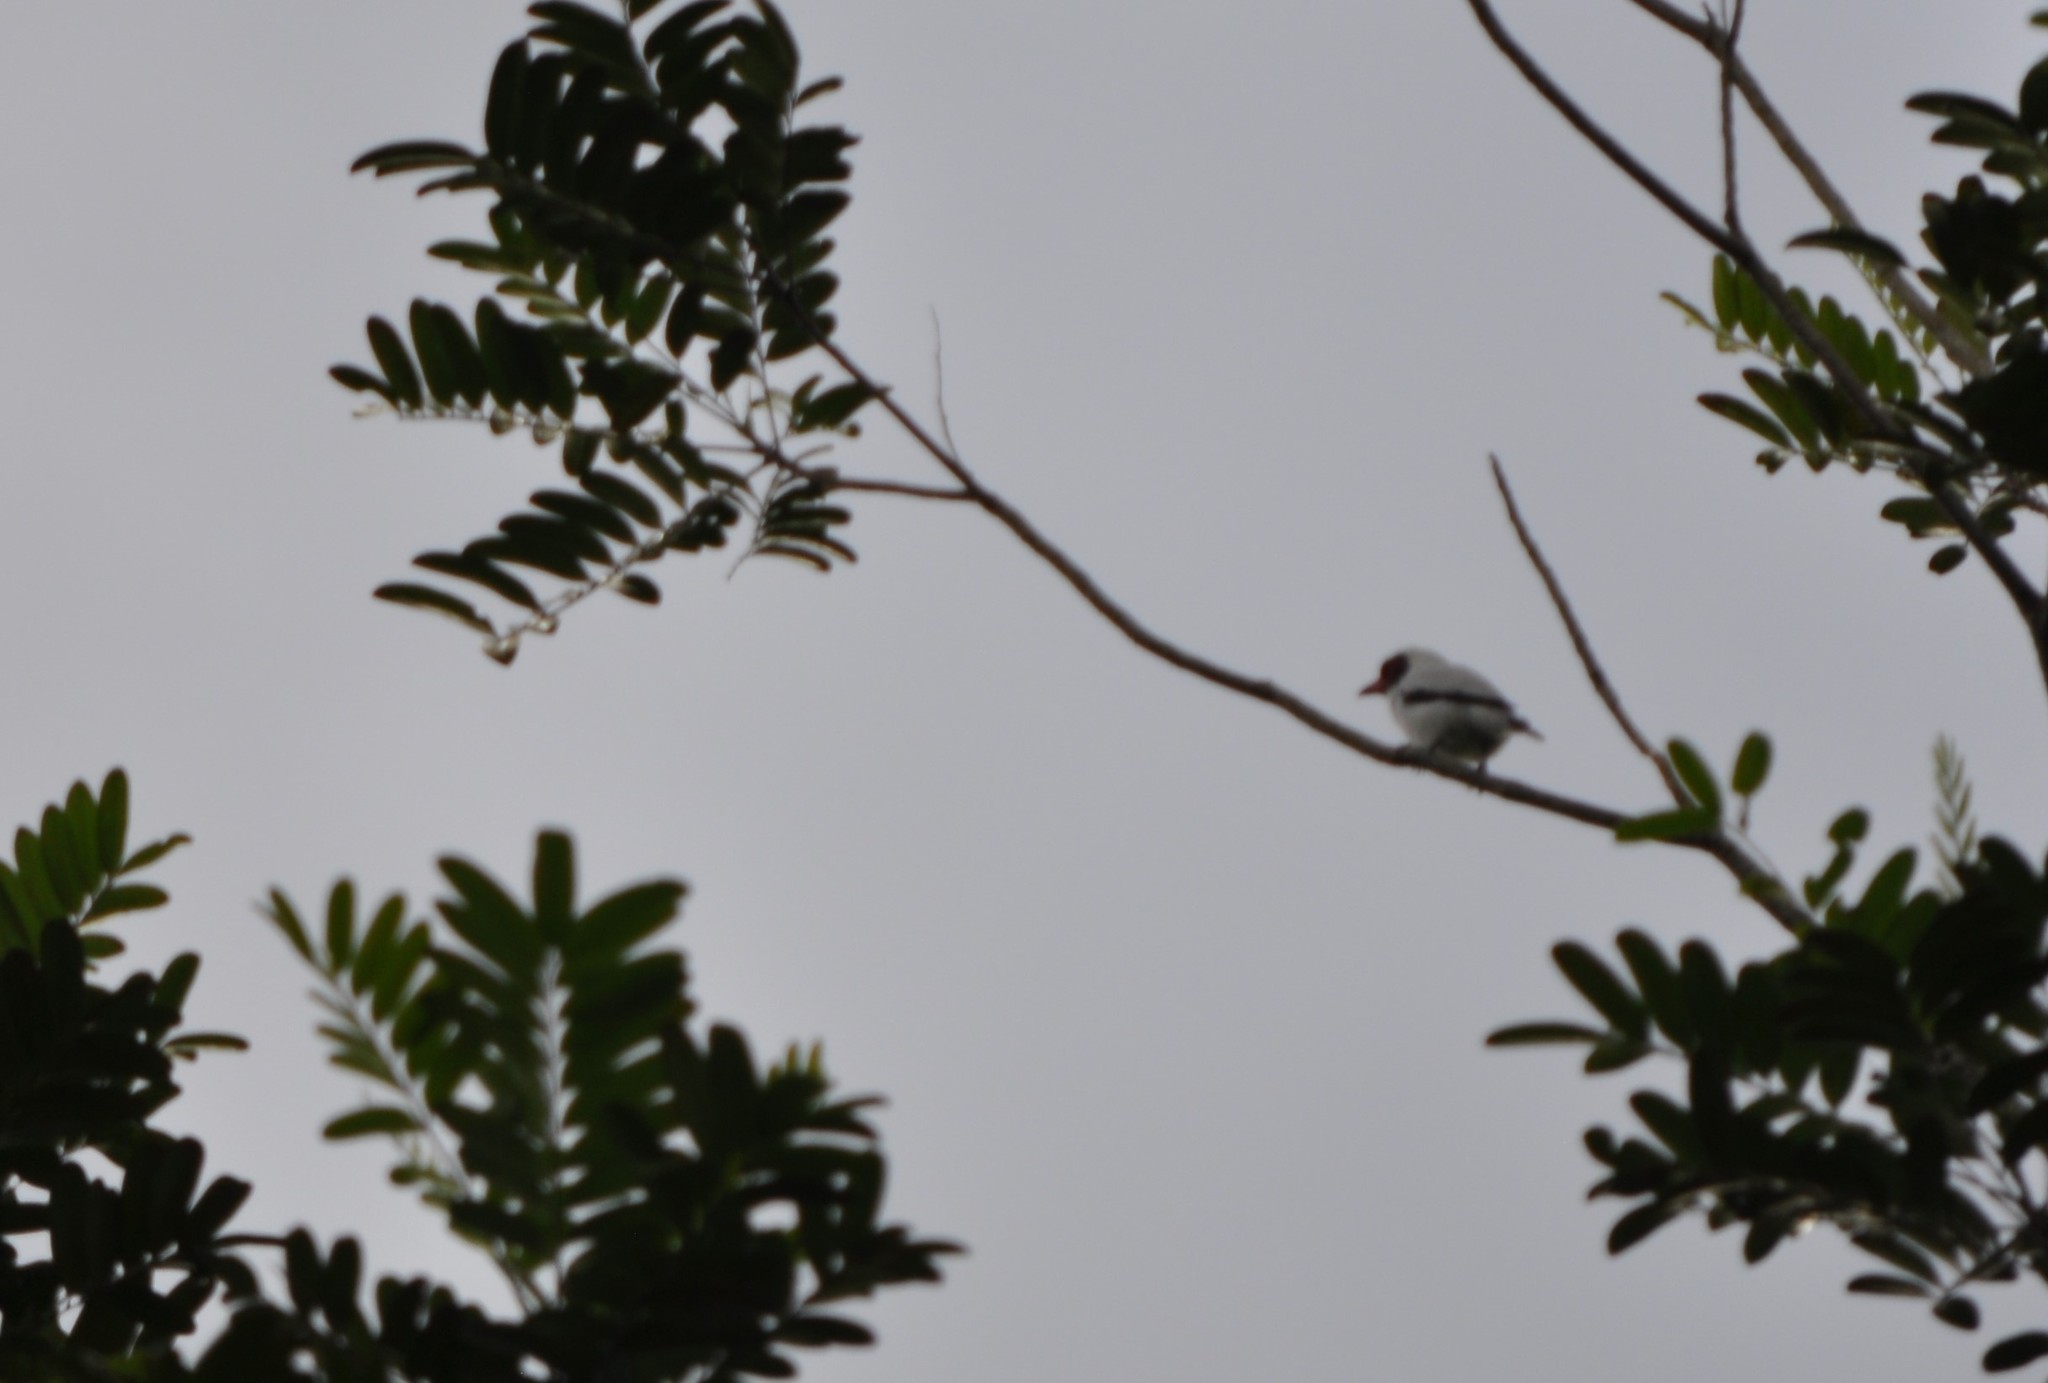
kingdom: Animalia
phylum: Chordata
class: Aves
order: Passeriformes
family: Cotingidae
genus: Tityra
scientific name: Tityra semifasciata
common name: Masked tityra
